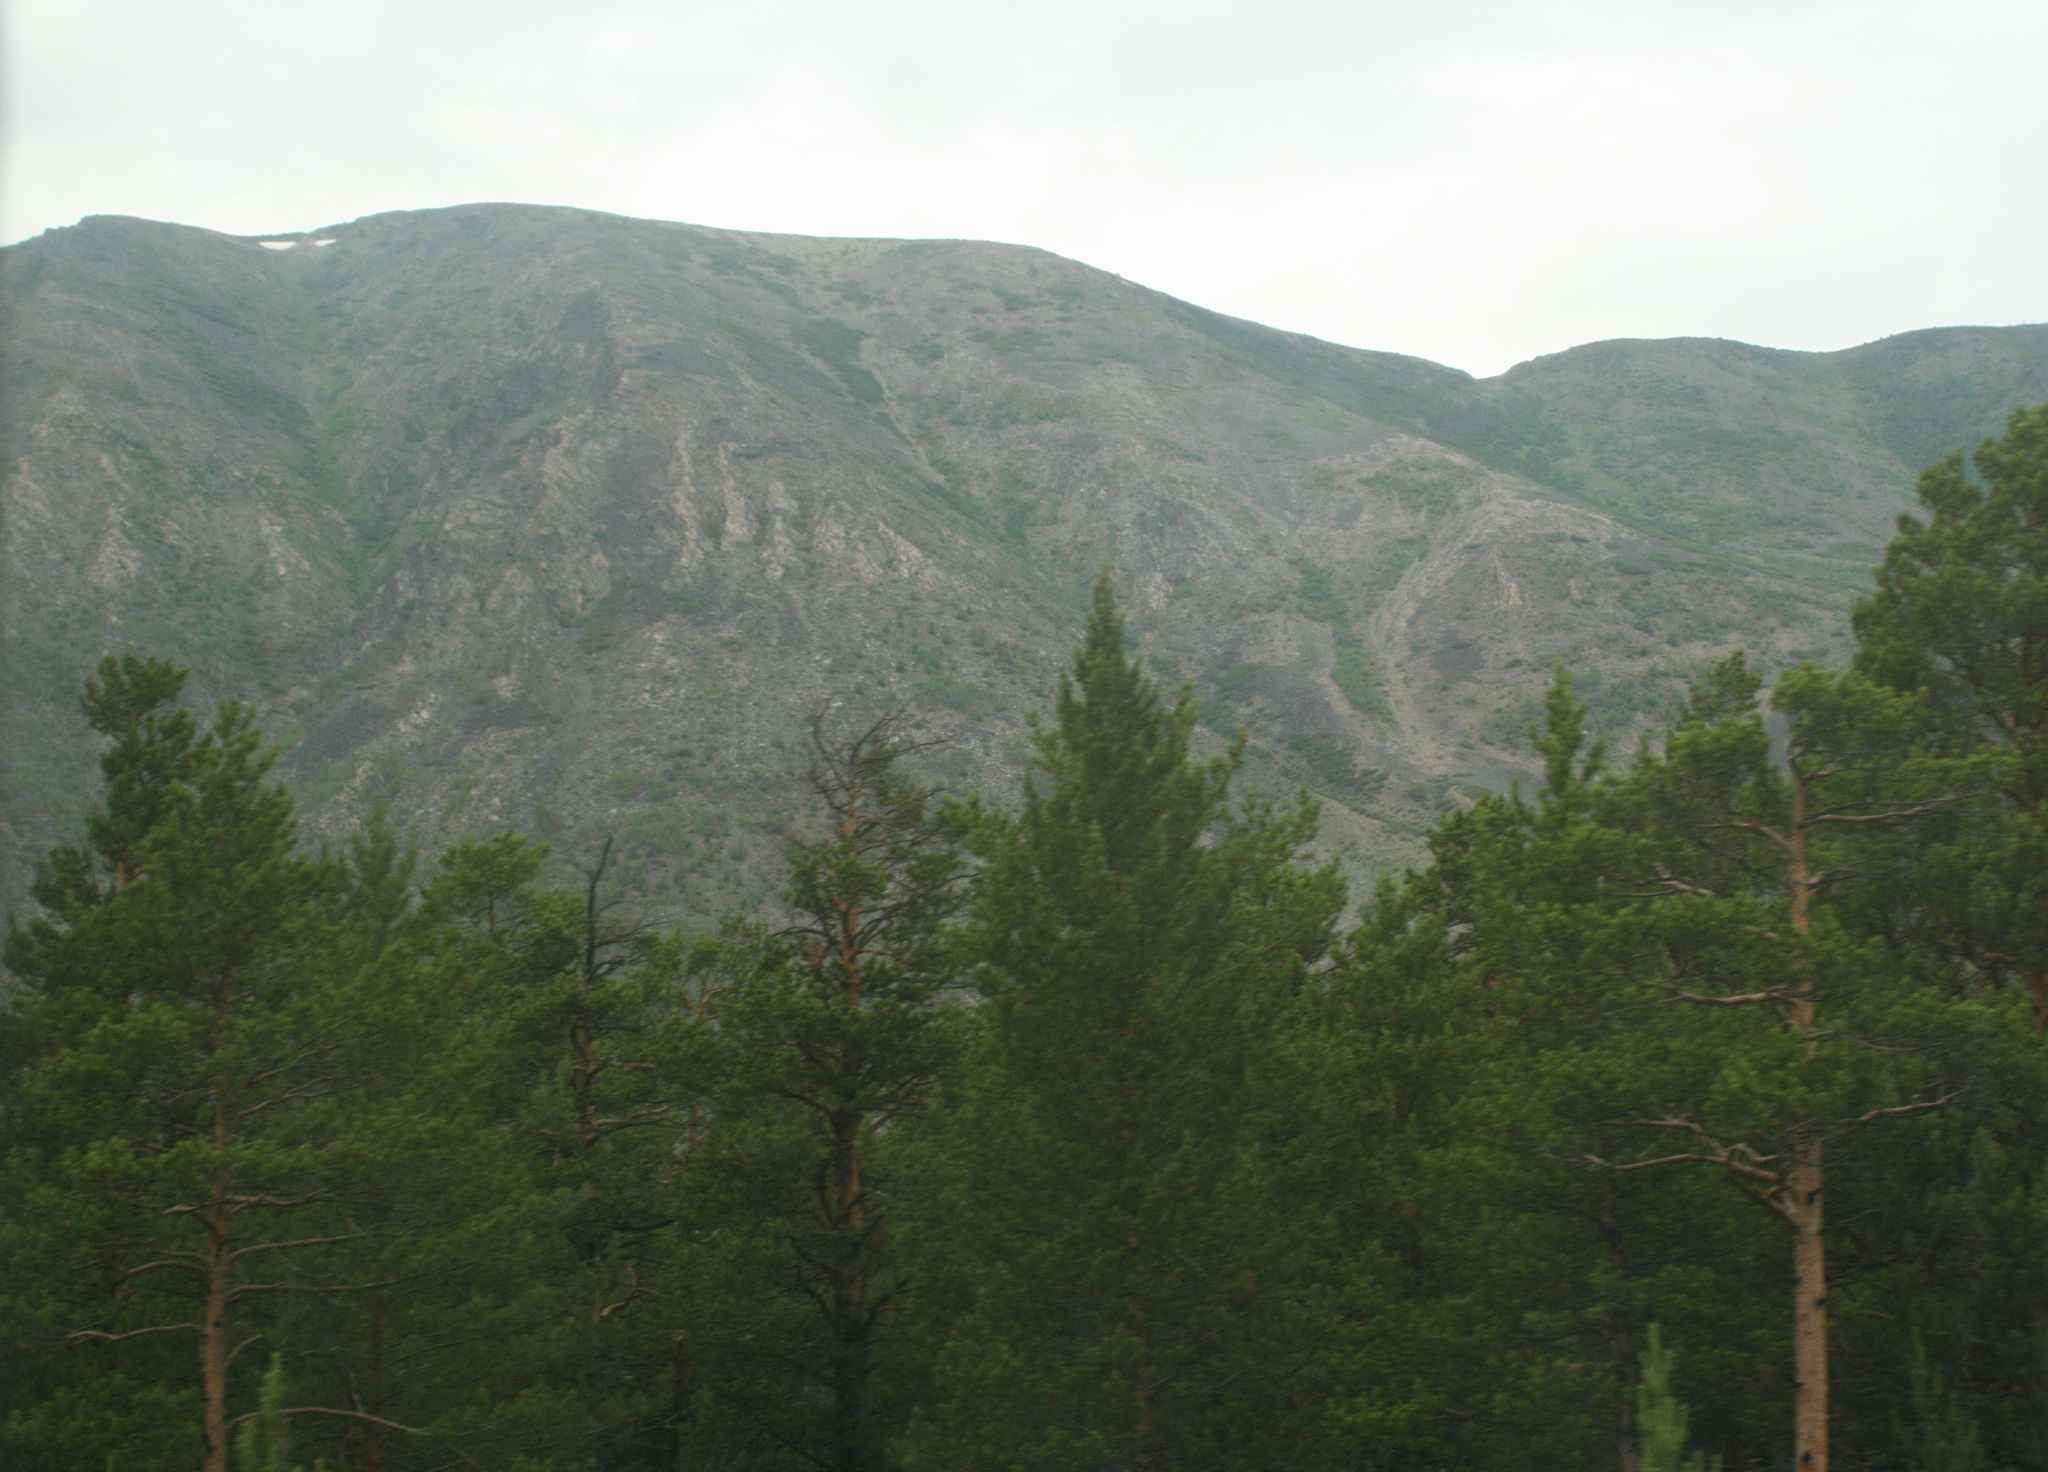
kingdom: Plantae
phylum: Tracheophyta
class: Pinopsida
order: Pinales
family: Pinaceae
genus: Pinus
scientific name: Pinus sylvestris
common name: Scots pine
